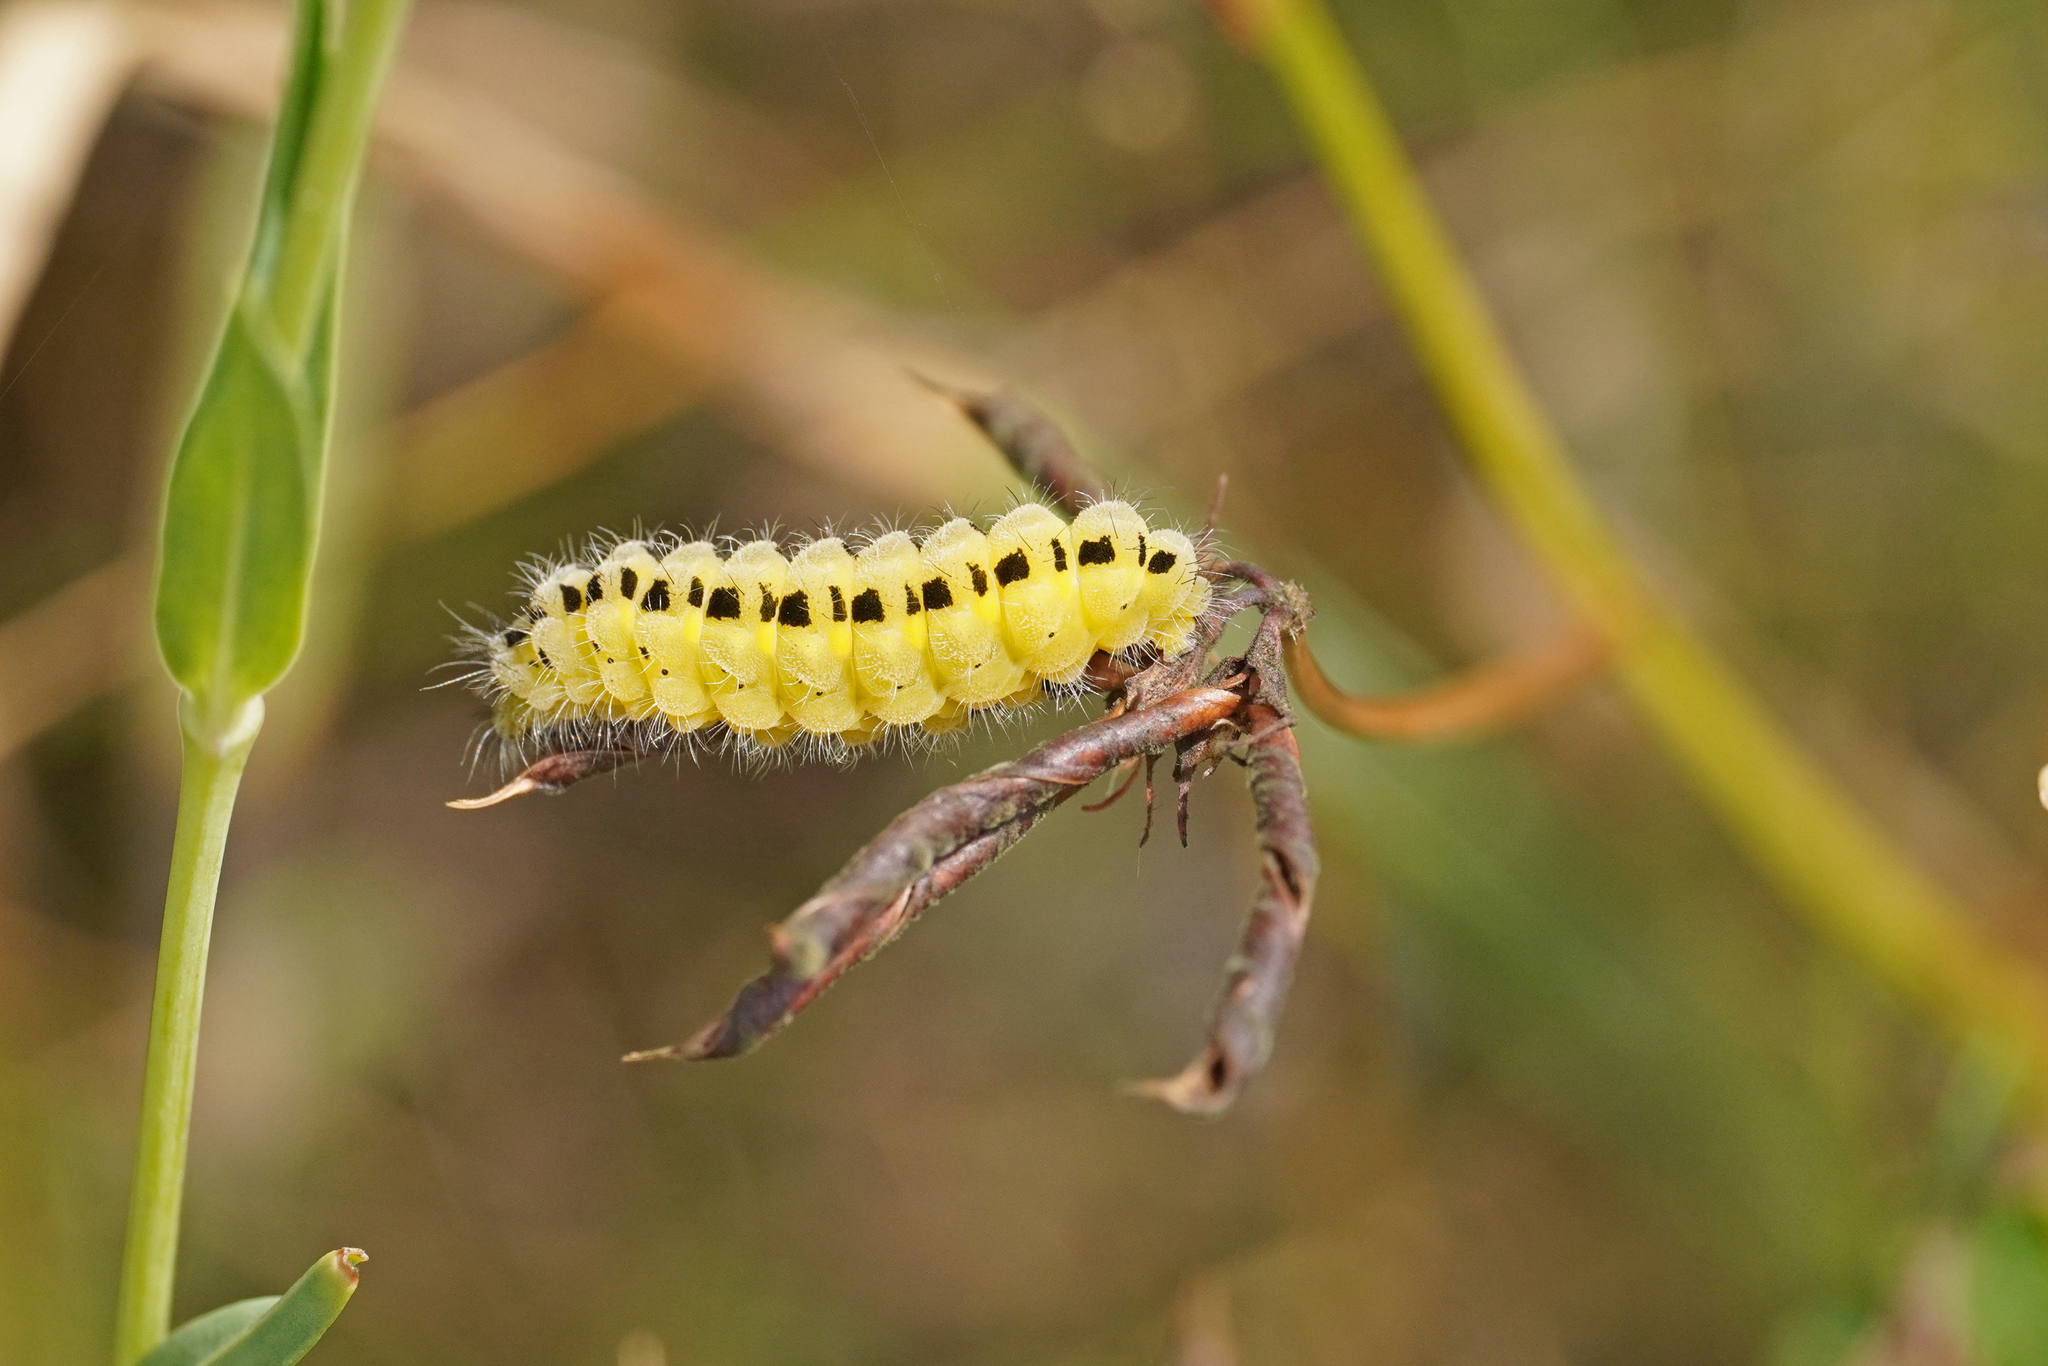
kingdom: Animalia
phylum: Arthropoda
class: Insecta
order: Lepidoptera
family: Zygaenidae
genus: Zygaena
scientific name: Zygaena filipendulae
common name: Six-spot burnet
